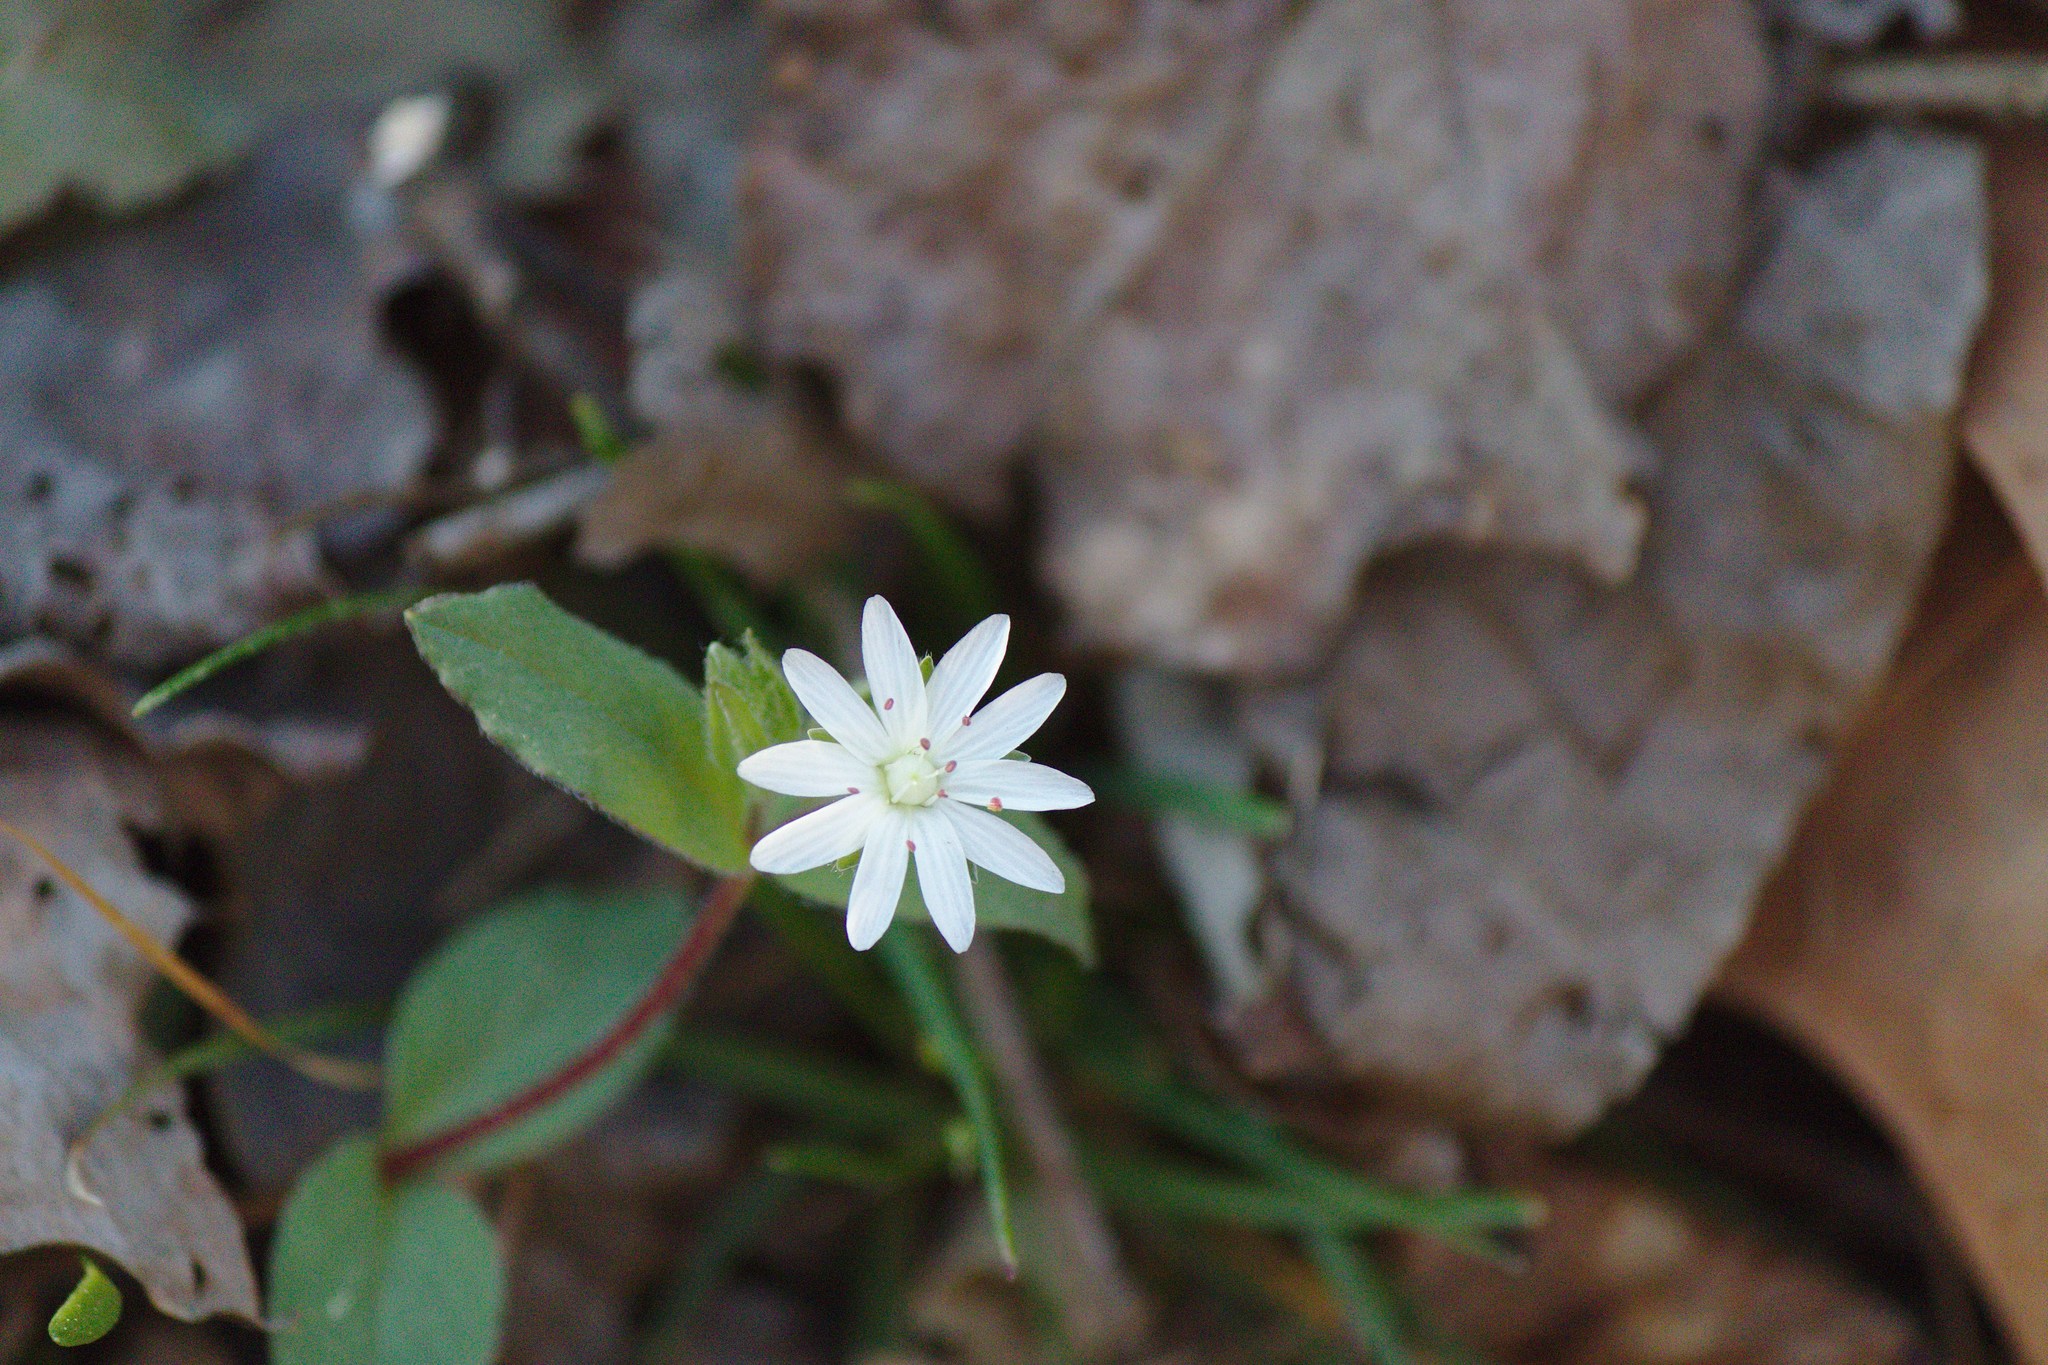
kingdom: Plantae
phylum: Tracheophyta
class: Magnoliopsida
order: Caryophyllales
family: Caryophyllaceae
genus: Stellaria
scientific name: Stellaria pubera
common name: Star chickweed
